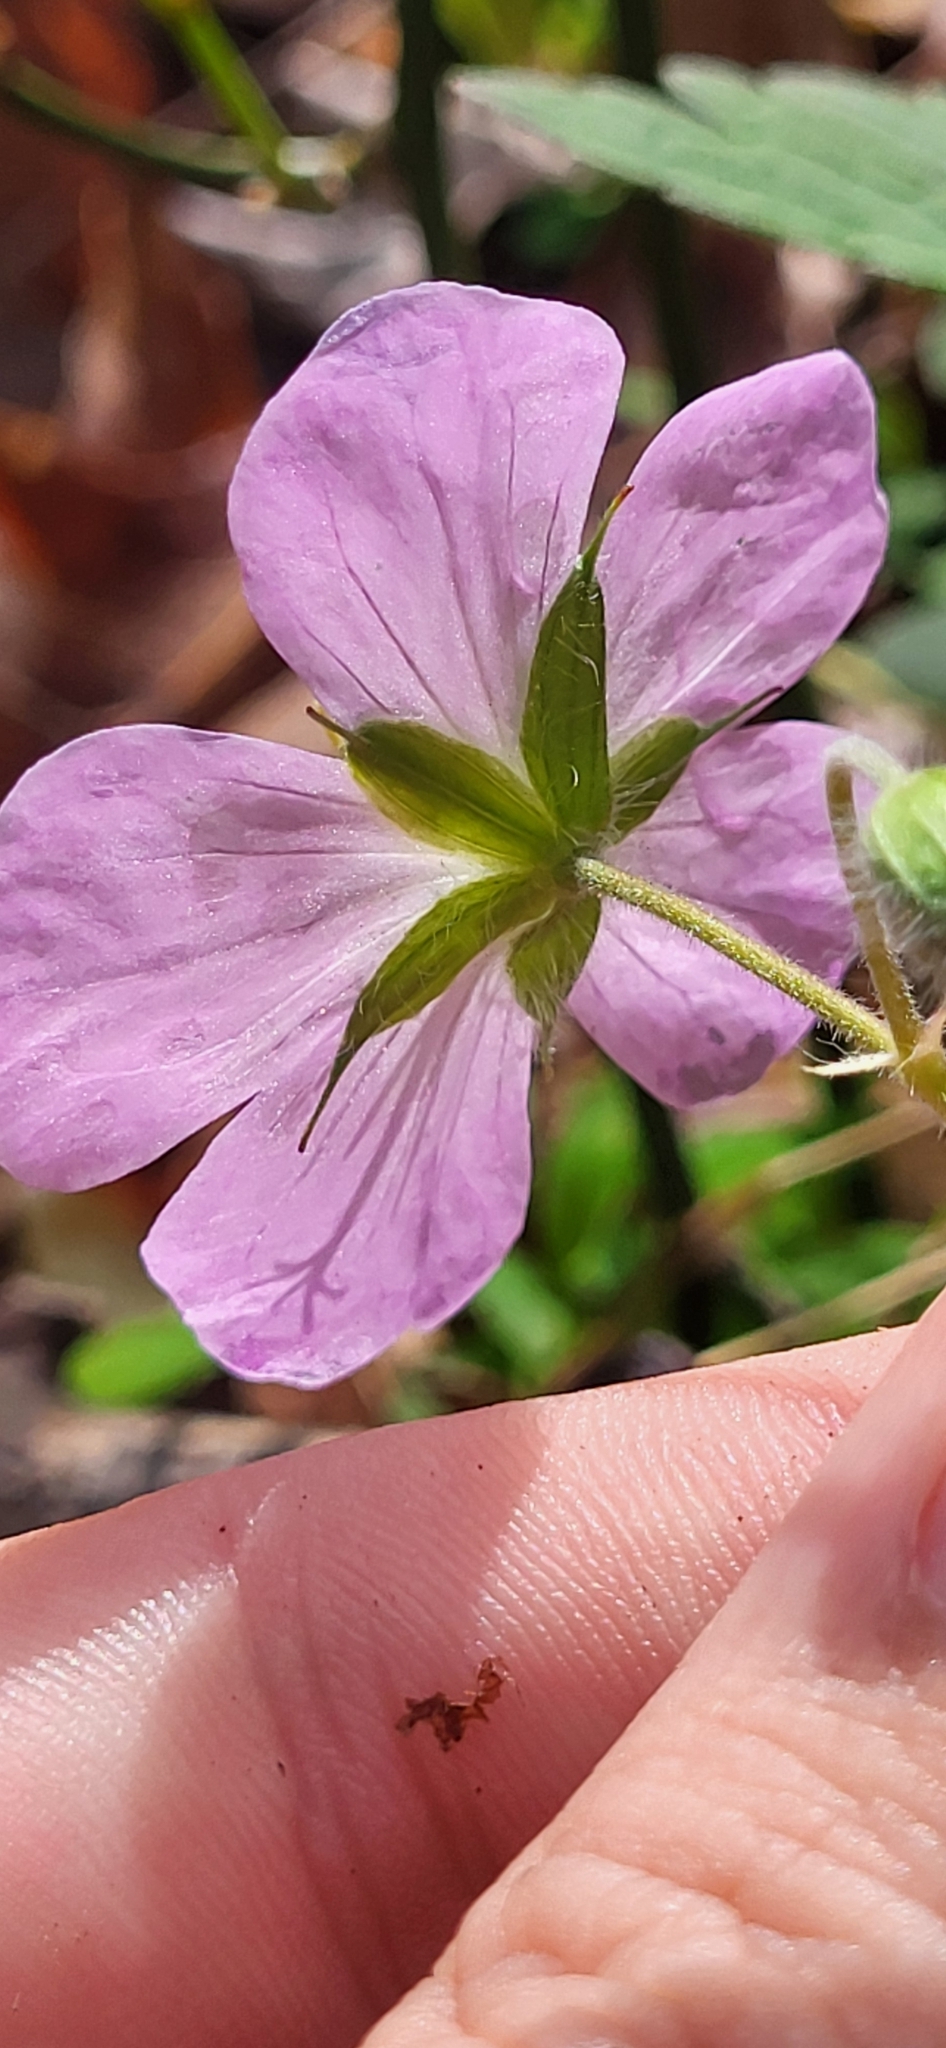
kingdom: Plantae
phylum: Tracheophyta
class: Magnoliopsida
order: Geraniales
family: Geraniaceae
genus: Geranium
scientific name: Geranium maculatum
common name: Spotted geranium
